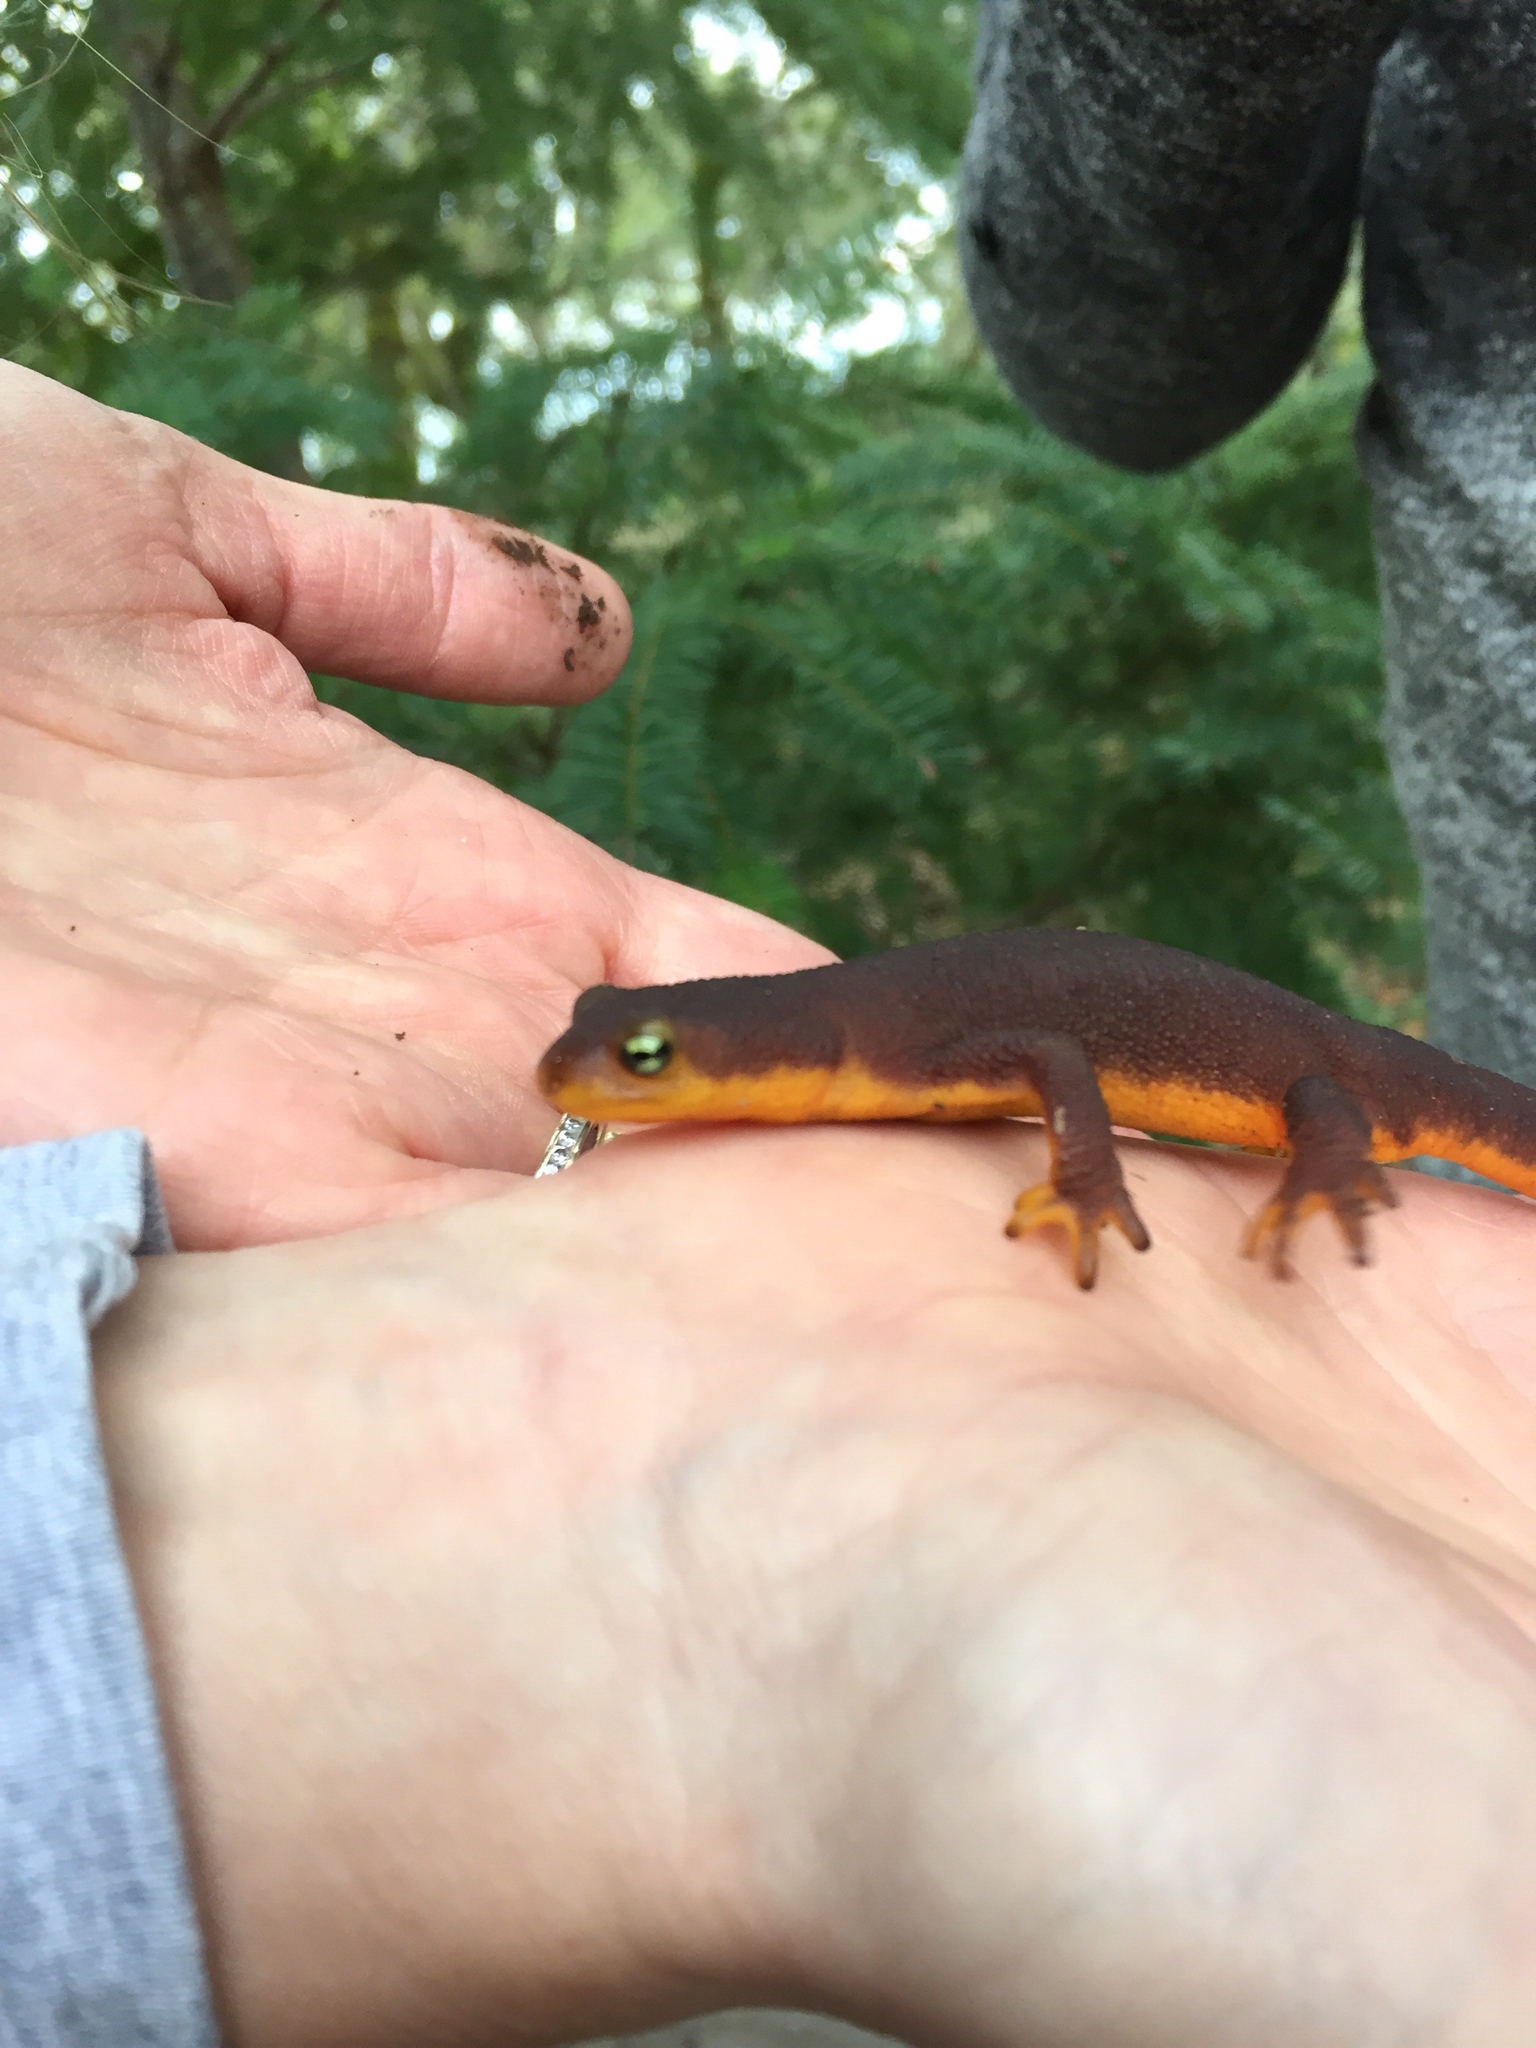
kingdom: Animalia
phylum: Chordata
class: Amphibia
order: Caudata
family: Salamandridae
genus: Taricha
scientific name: Taricha torosa
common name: California newt
